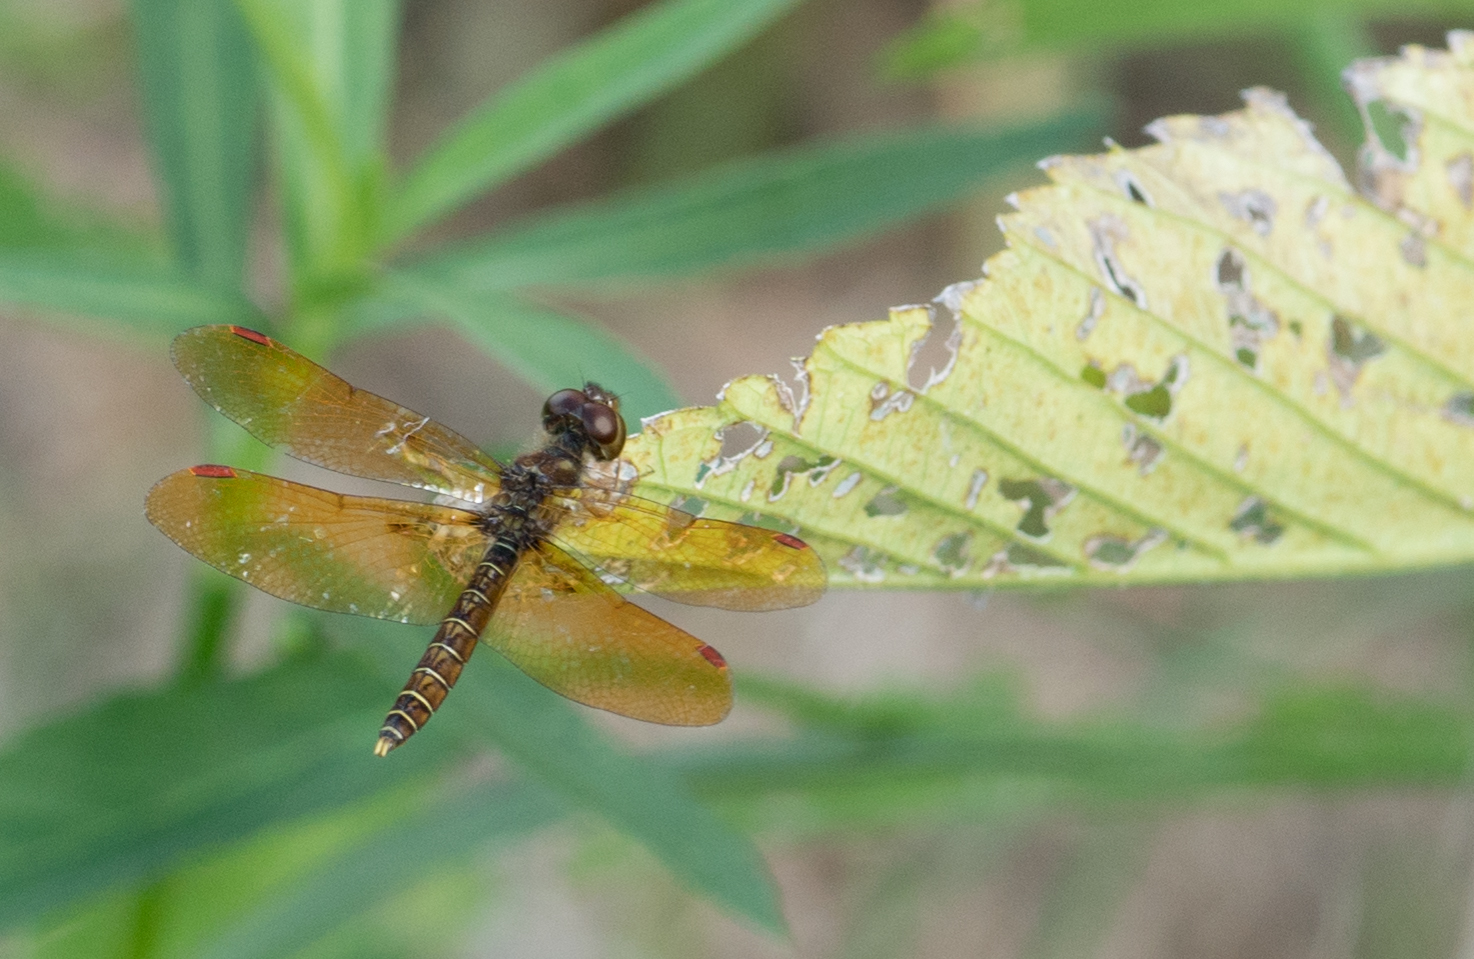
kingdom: Animalia
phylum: Arthropoda
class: Insecta
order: Odonata
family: Libellulidae
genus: Perithemis
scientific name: Perithemis tenera
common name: Eastern amberwing
